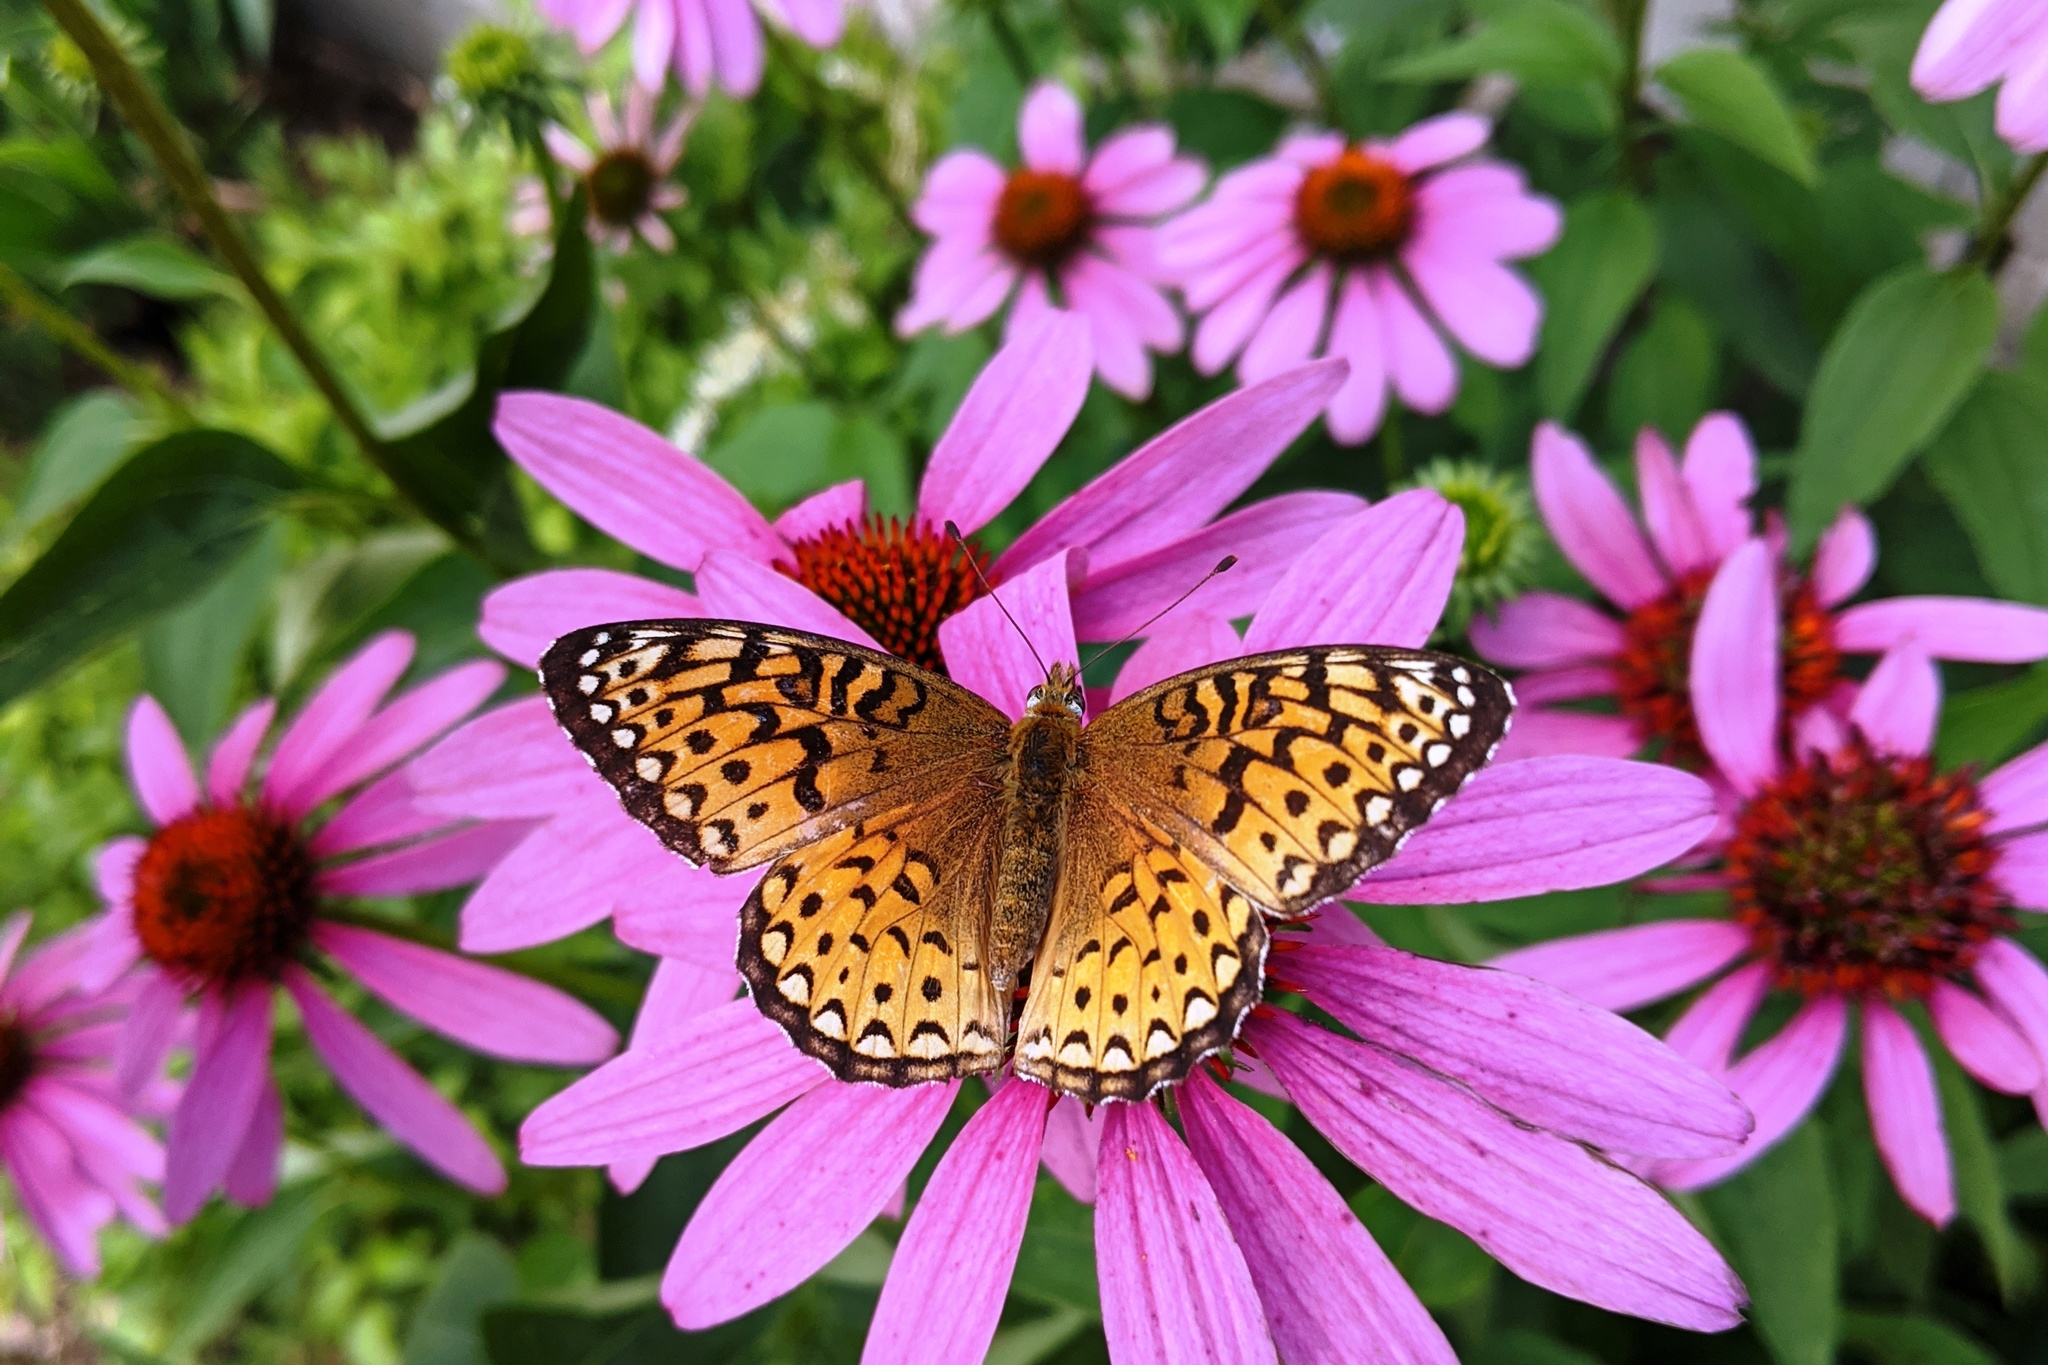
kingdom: Animalia
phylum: Arthropoda
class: Insecta
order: Lepidoptera
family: Nymphalidae
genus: Speyeria
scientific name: Speyeria atlantis
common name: Atlantis fritillary
